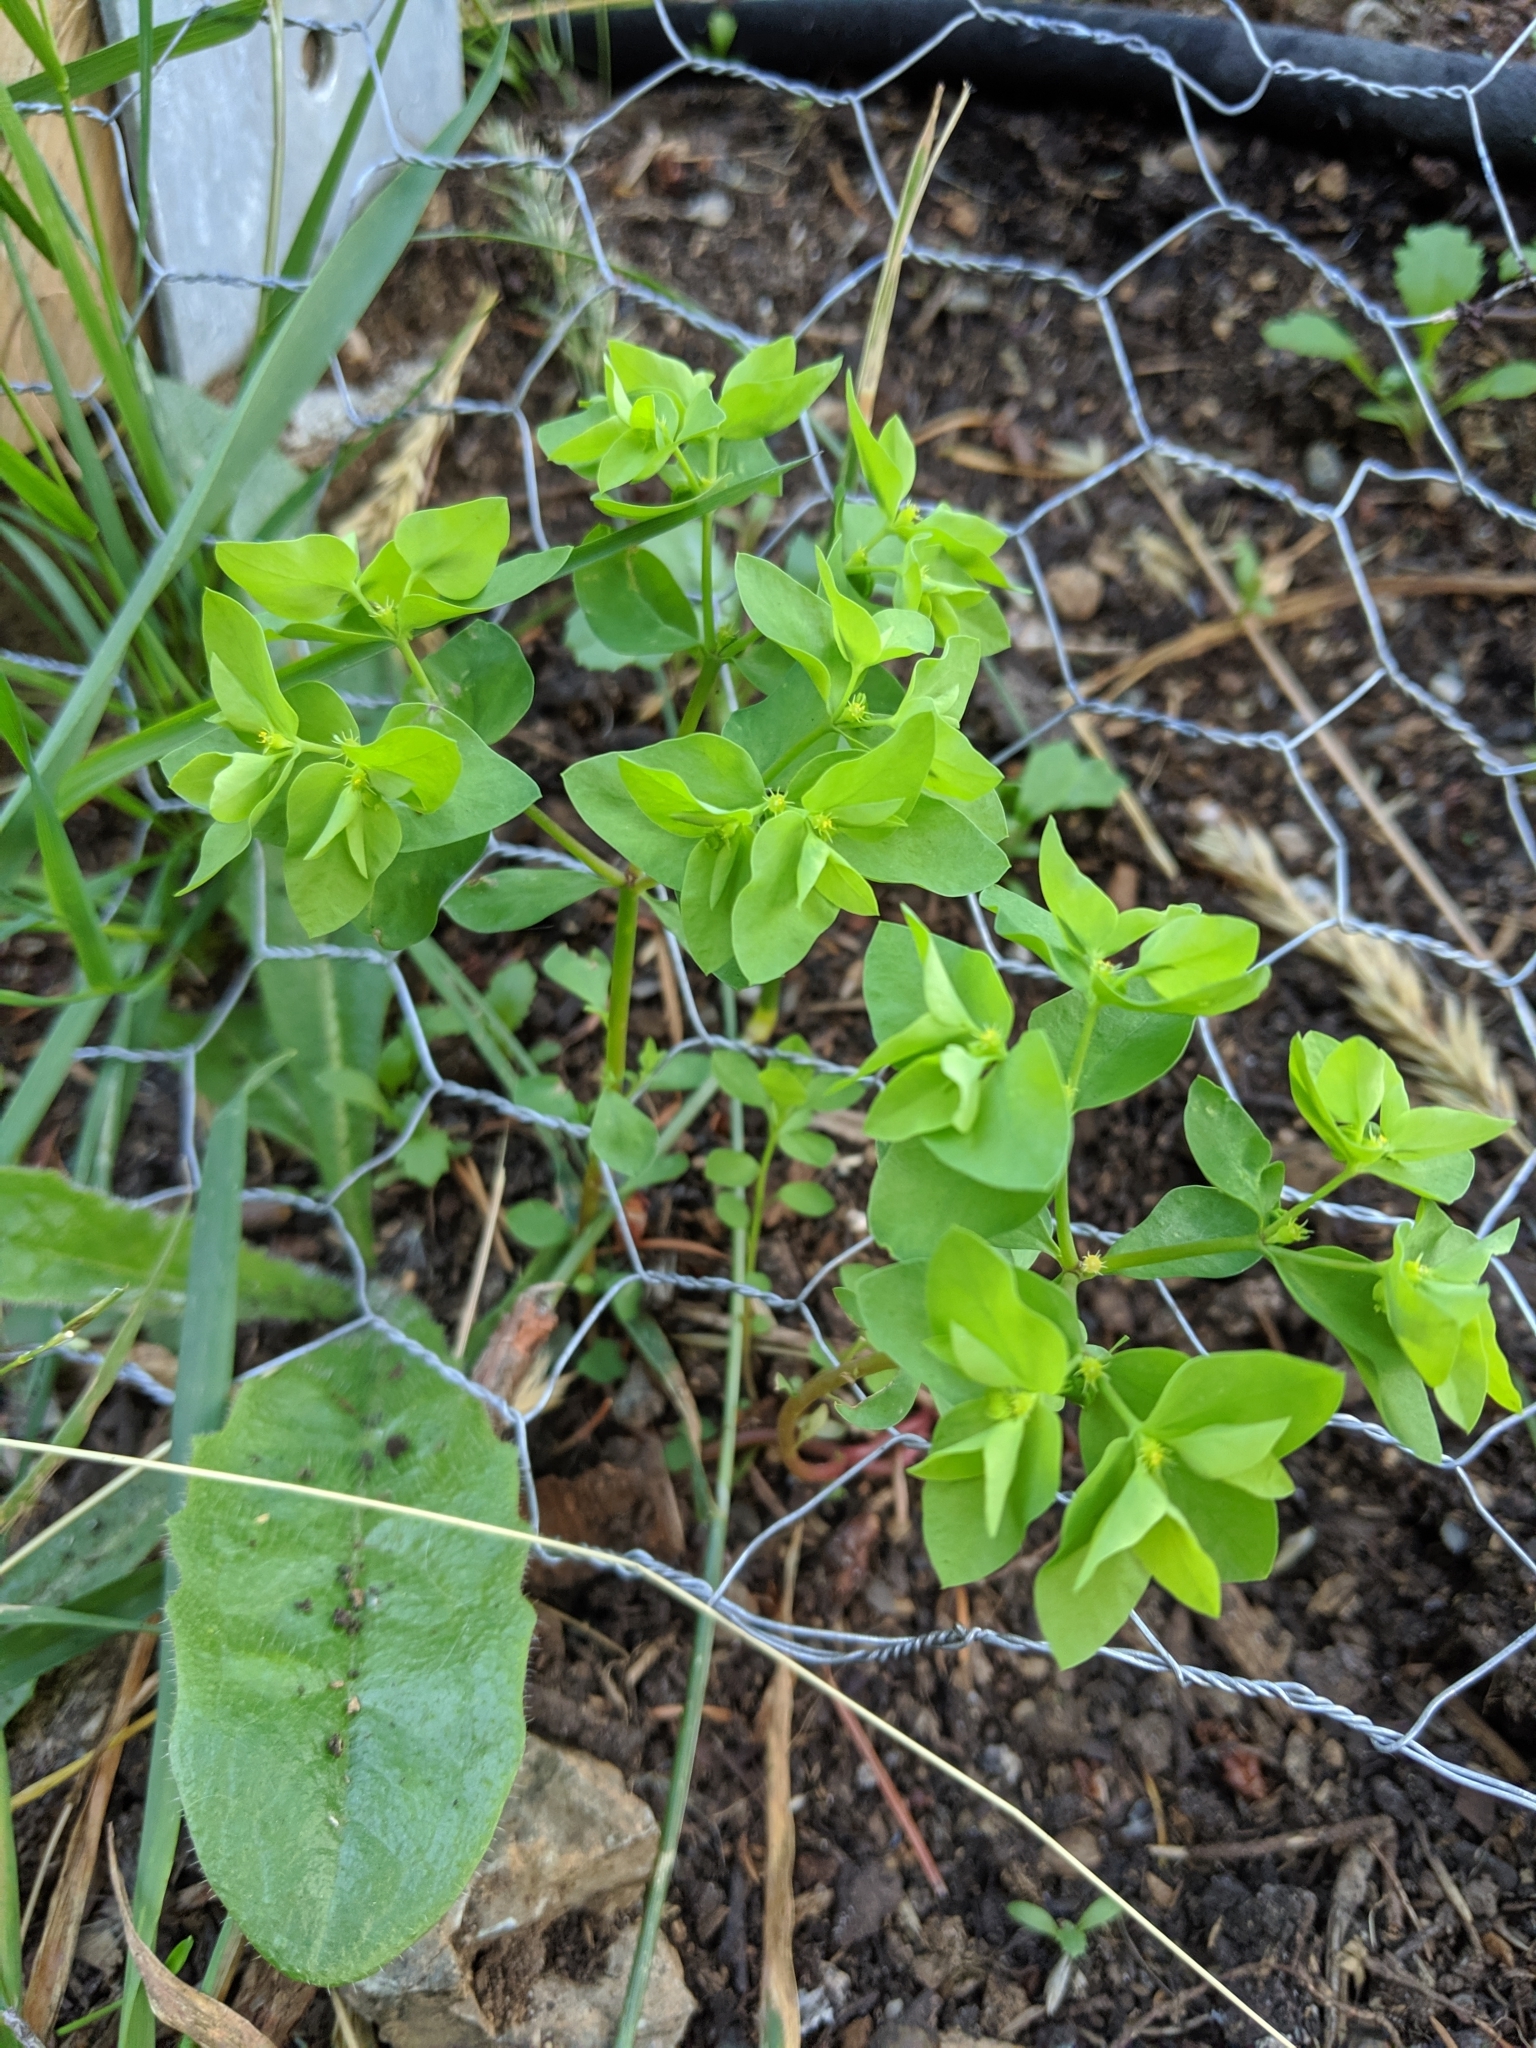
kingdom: Plantae
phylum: Tracheophyta
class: Magnoliopsida
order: Malpighiales
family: Euphorbiaceae
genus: Euphorbia
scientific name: Euphorbia peplus
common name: Petty spurge
